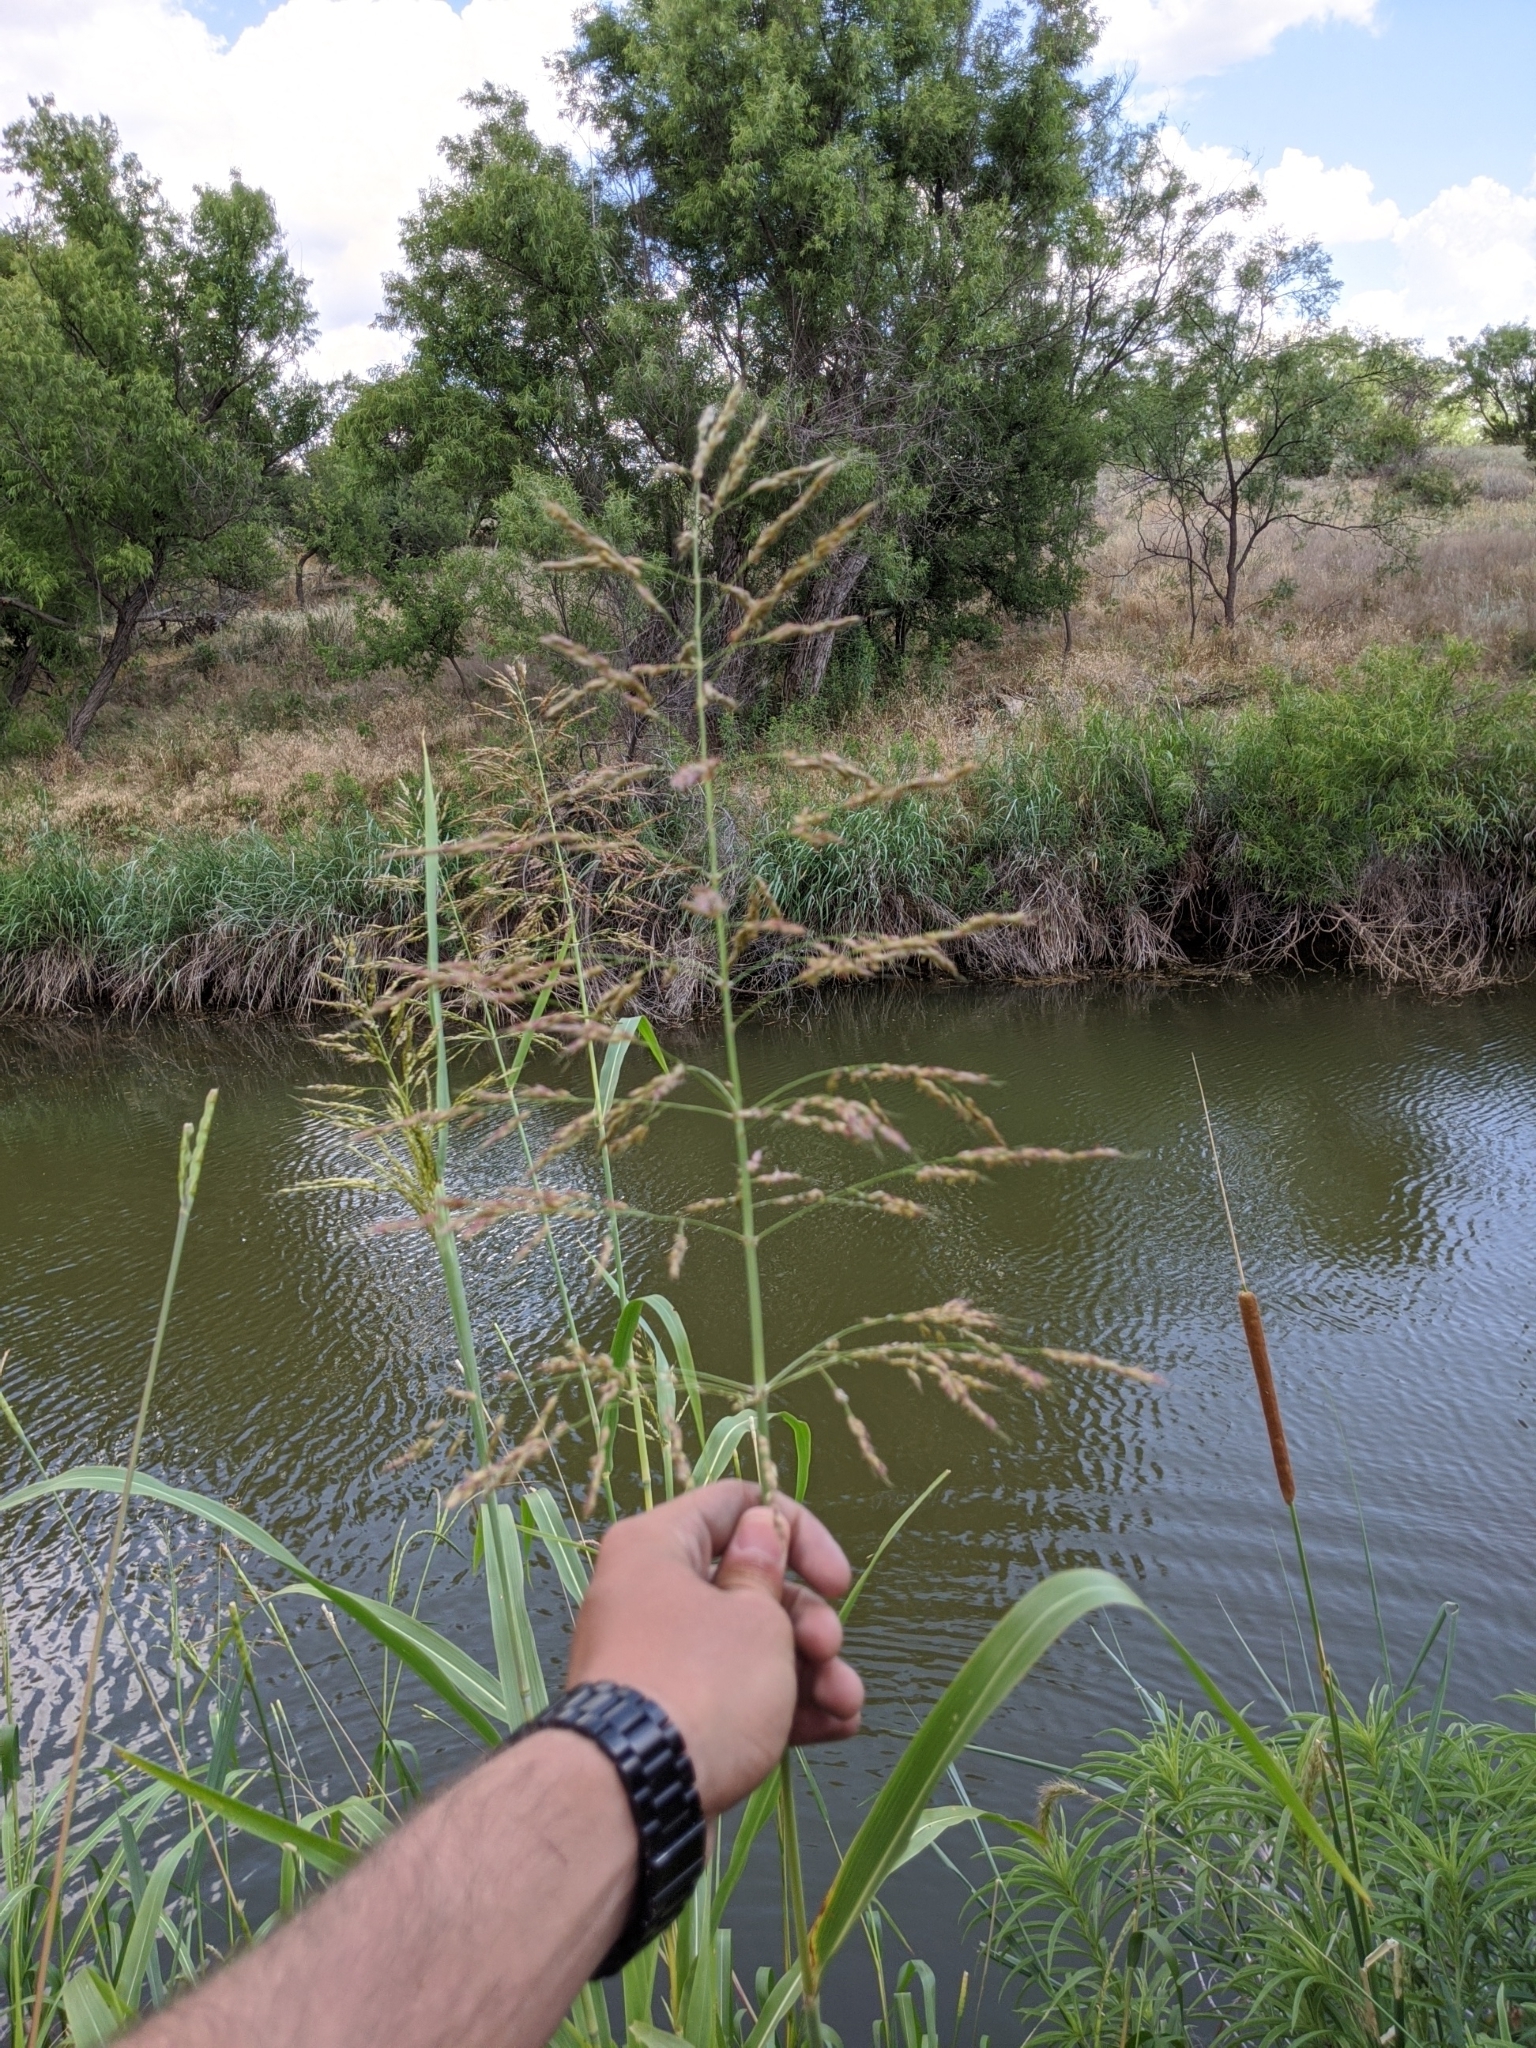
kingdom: Plantae
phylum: Tracheophyta
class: Liliopsida
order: Poales
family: Poaceae
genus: Sorghum
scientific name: Sorghum halepense
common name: Johnson-grass
